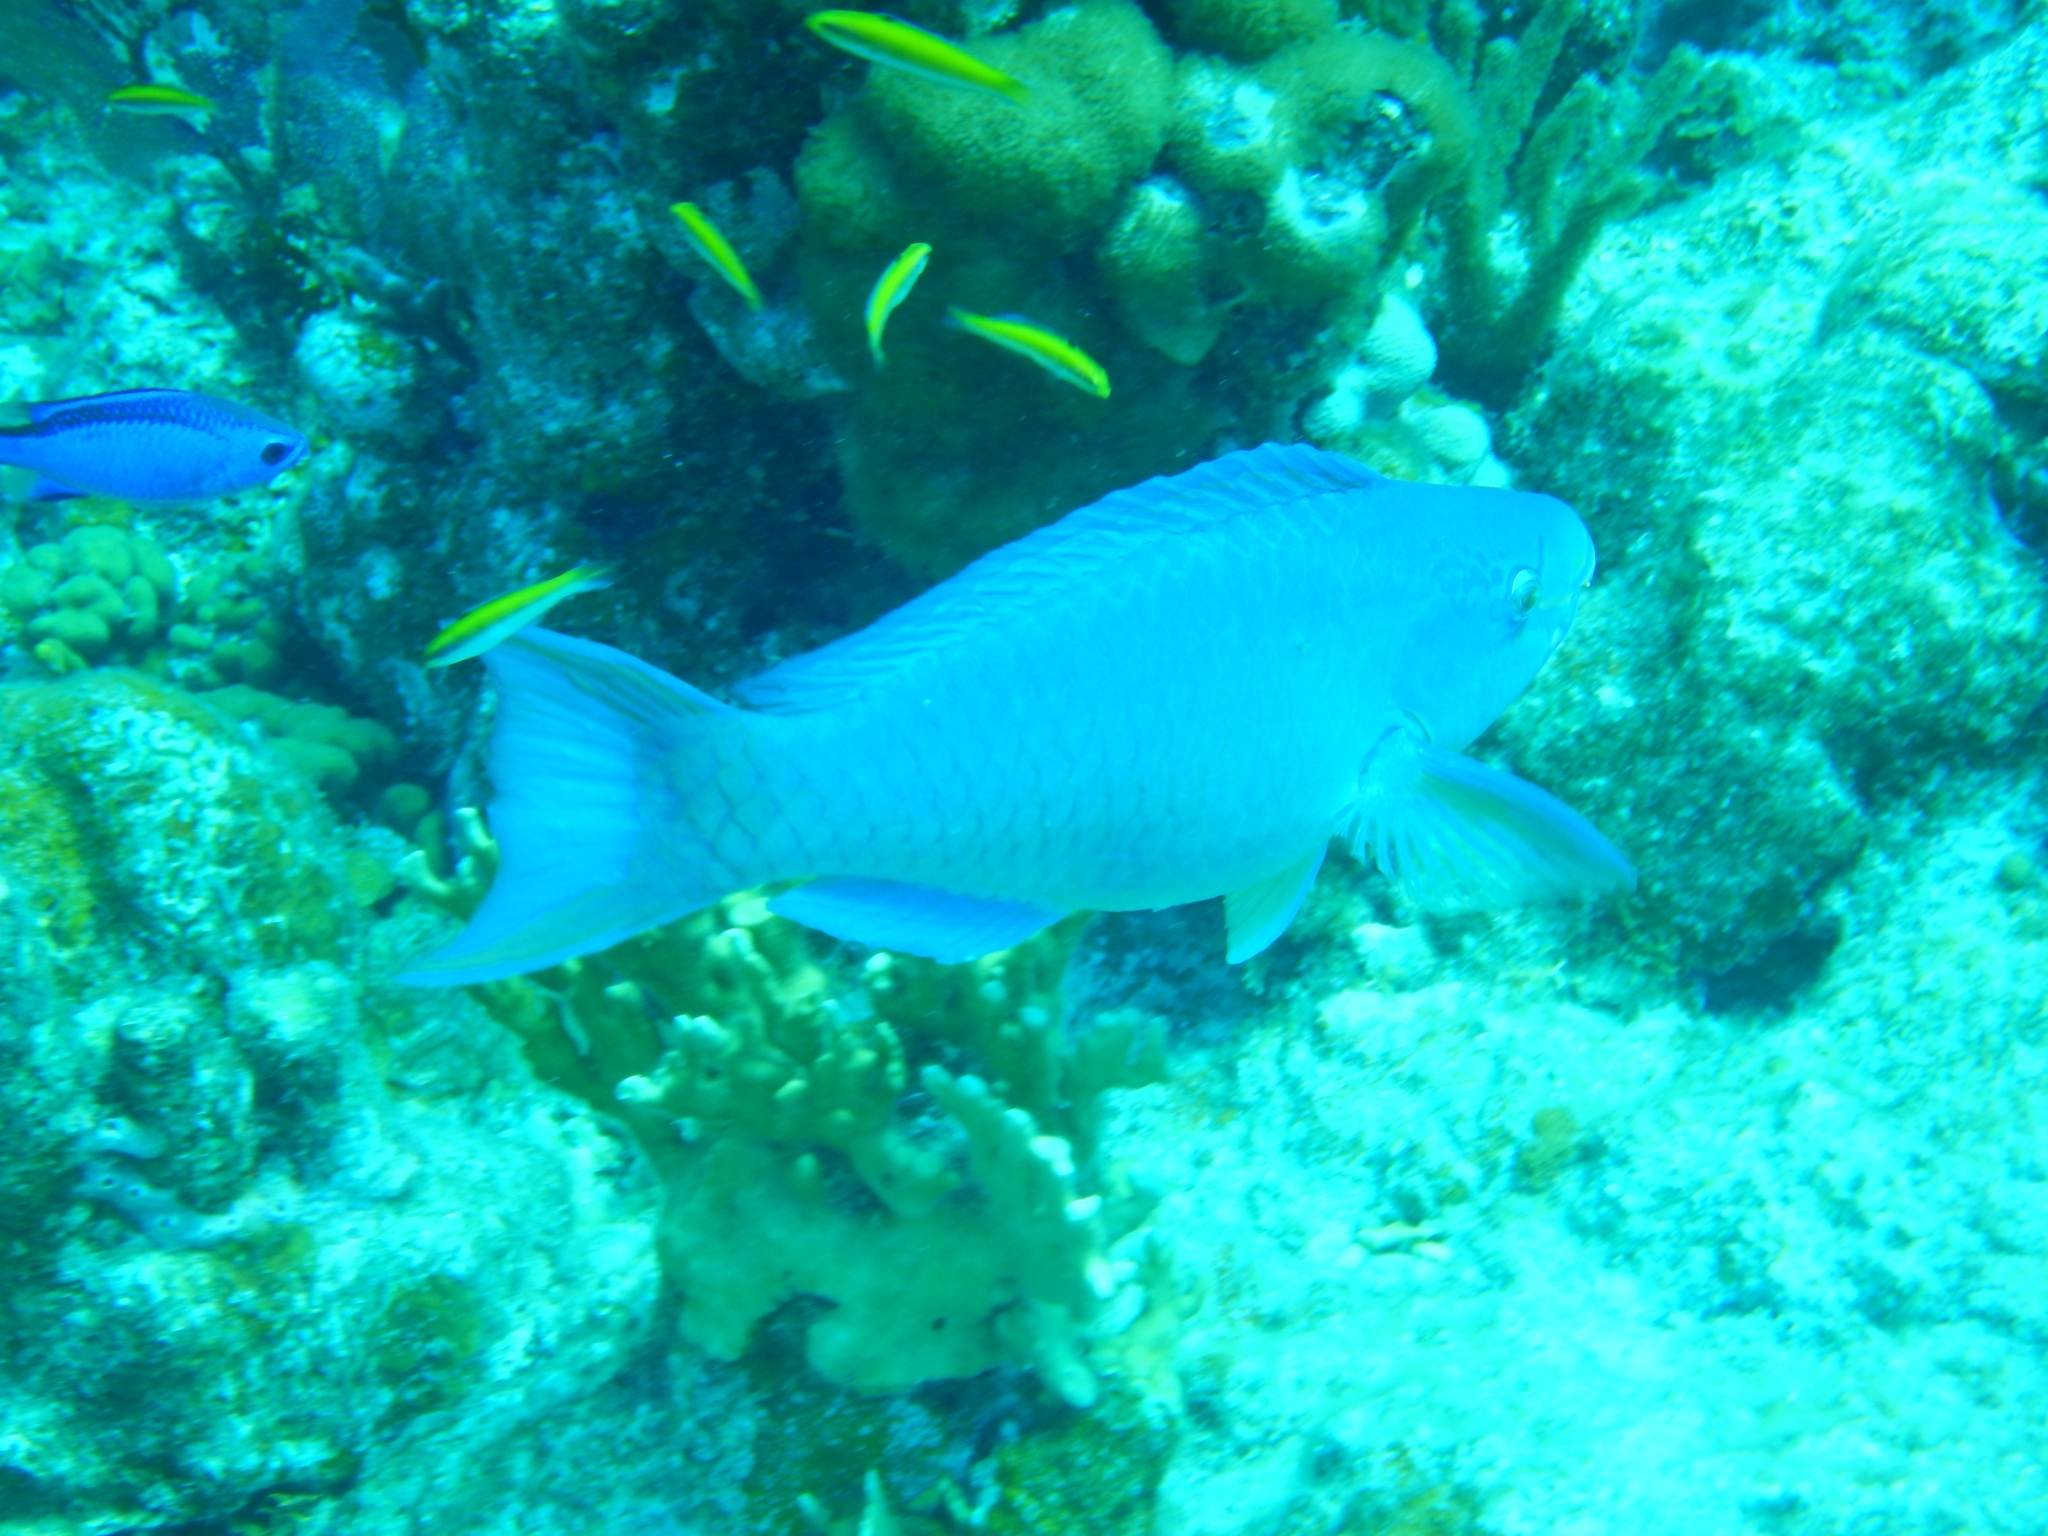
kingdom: Animalia
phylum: Chordata
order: Perciformes
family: Scaridae
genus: Scarus
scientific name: Scarus vetula
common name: Queen parrotfish
